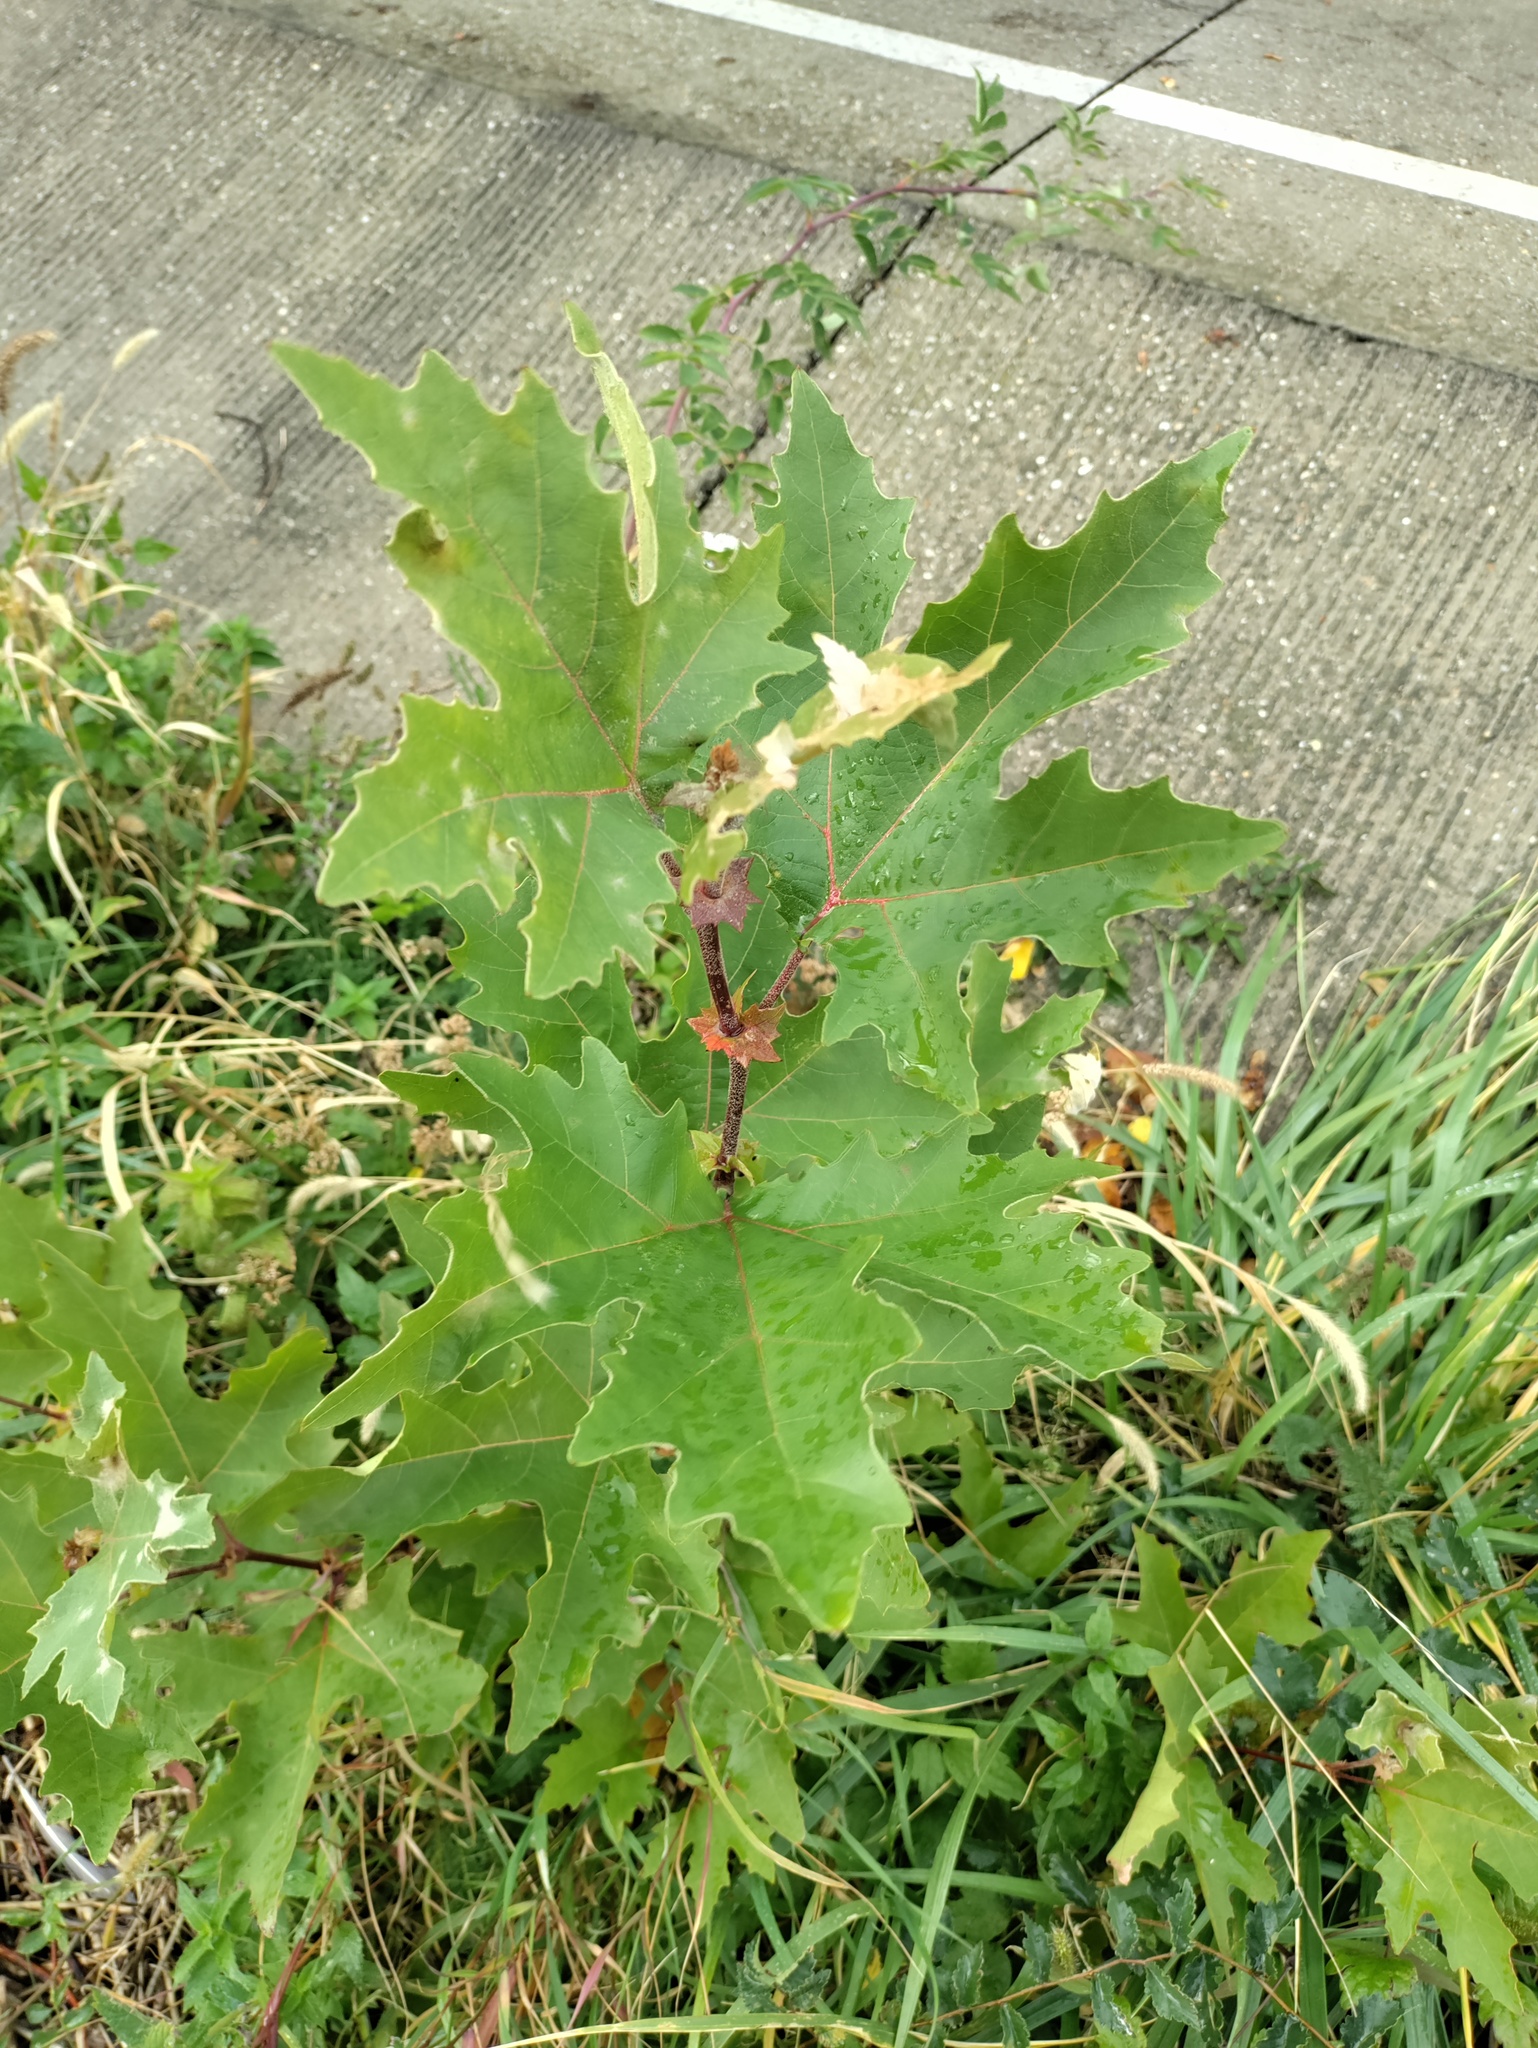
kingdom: Plantae
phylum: Tracheophyta
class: Magnoliopsida
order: Proteales
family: Platanaceae
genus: Platanus
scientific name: Platanus orientalis
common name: Oriental plane
